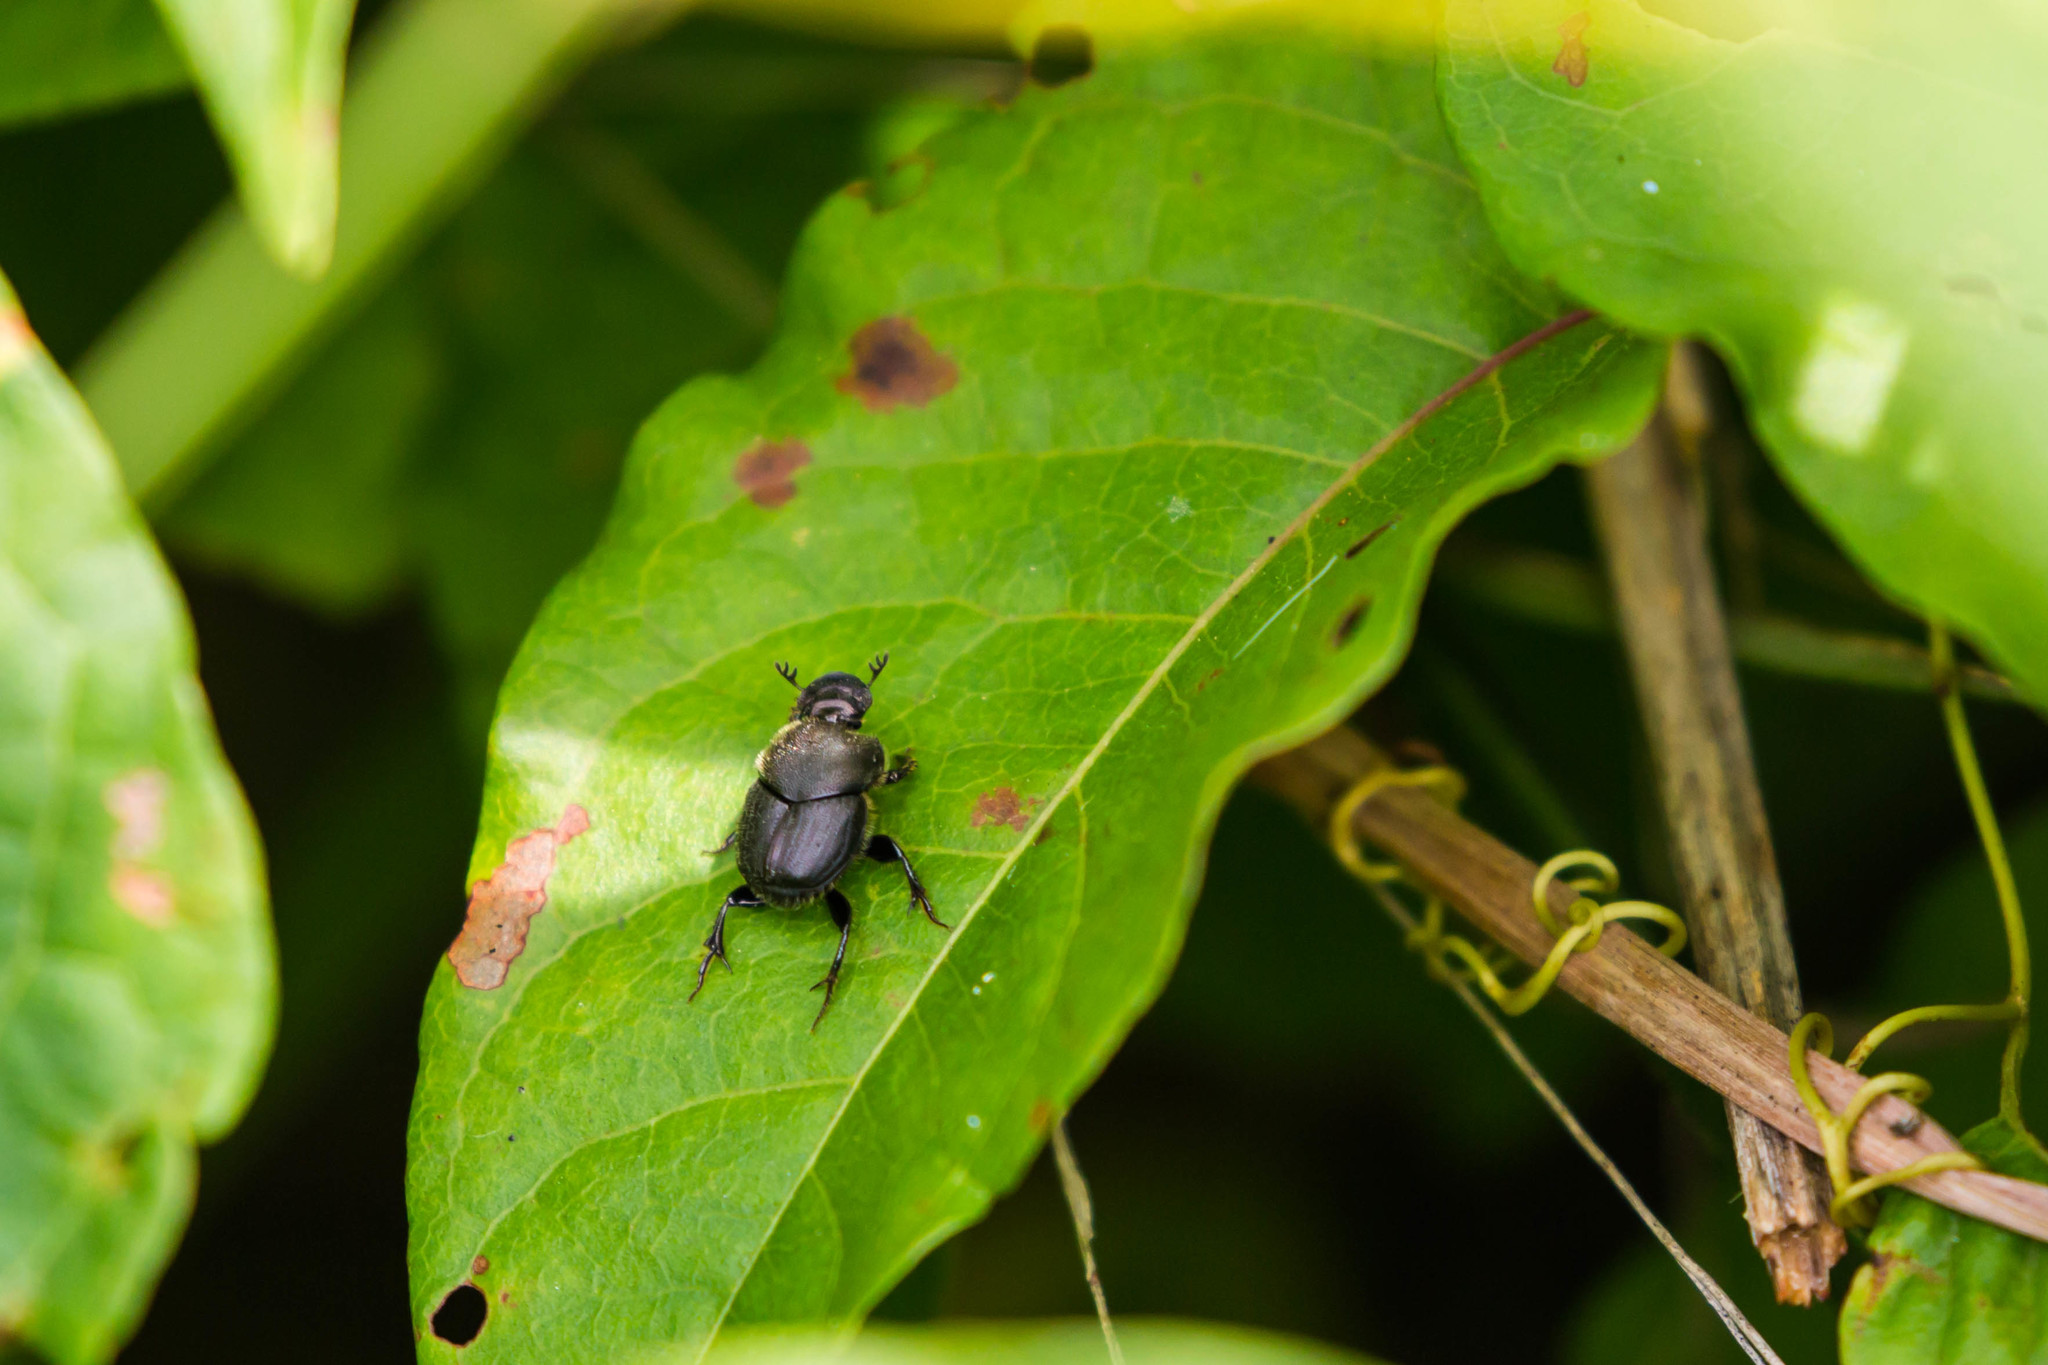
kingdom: Animalia
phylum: Arthropoda
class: Insecta
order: Coleoptera
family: Scarabaeidae
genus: Onthophagus
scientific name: Onthophagus hecate
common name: Scooped scarab
